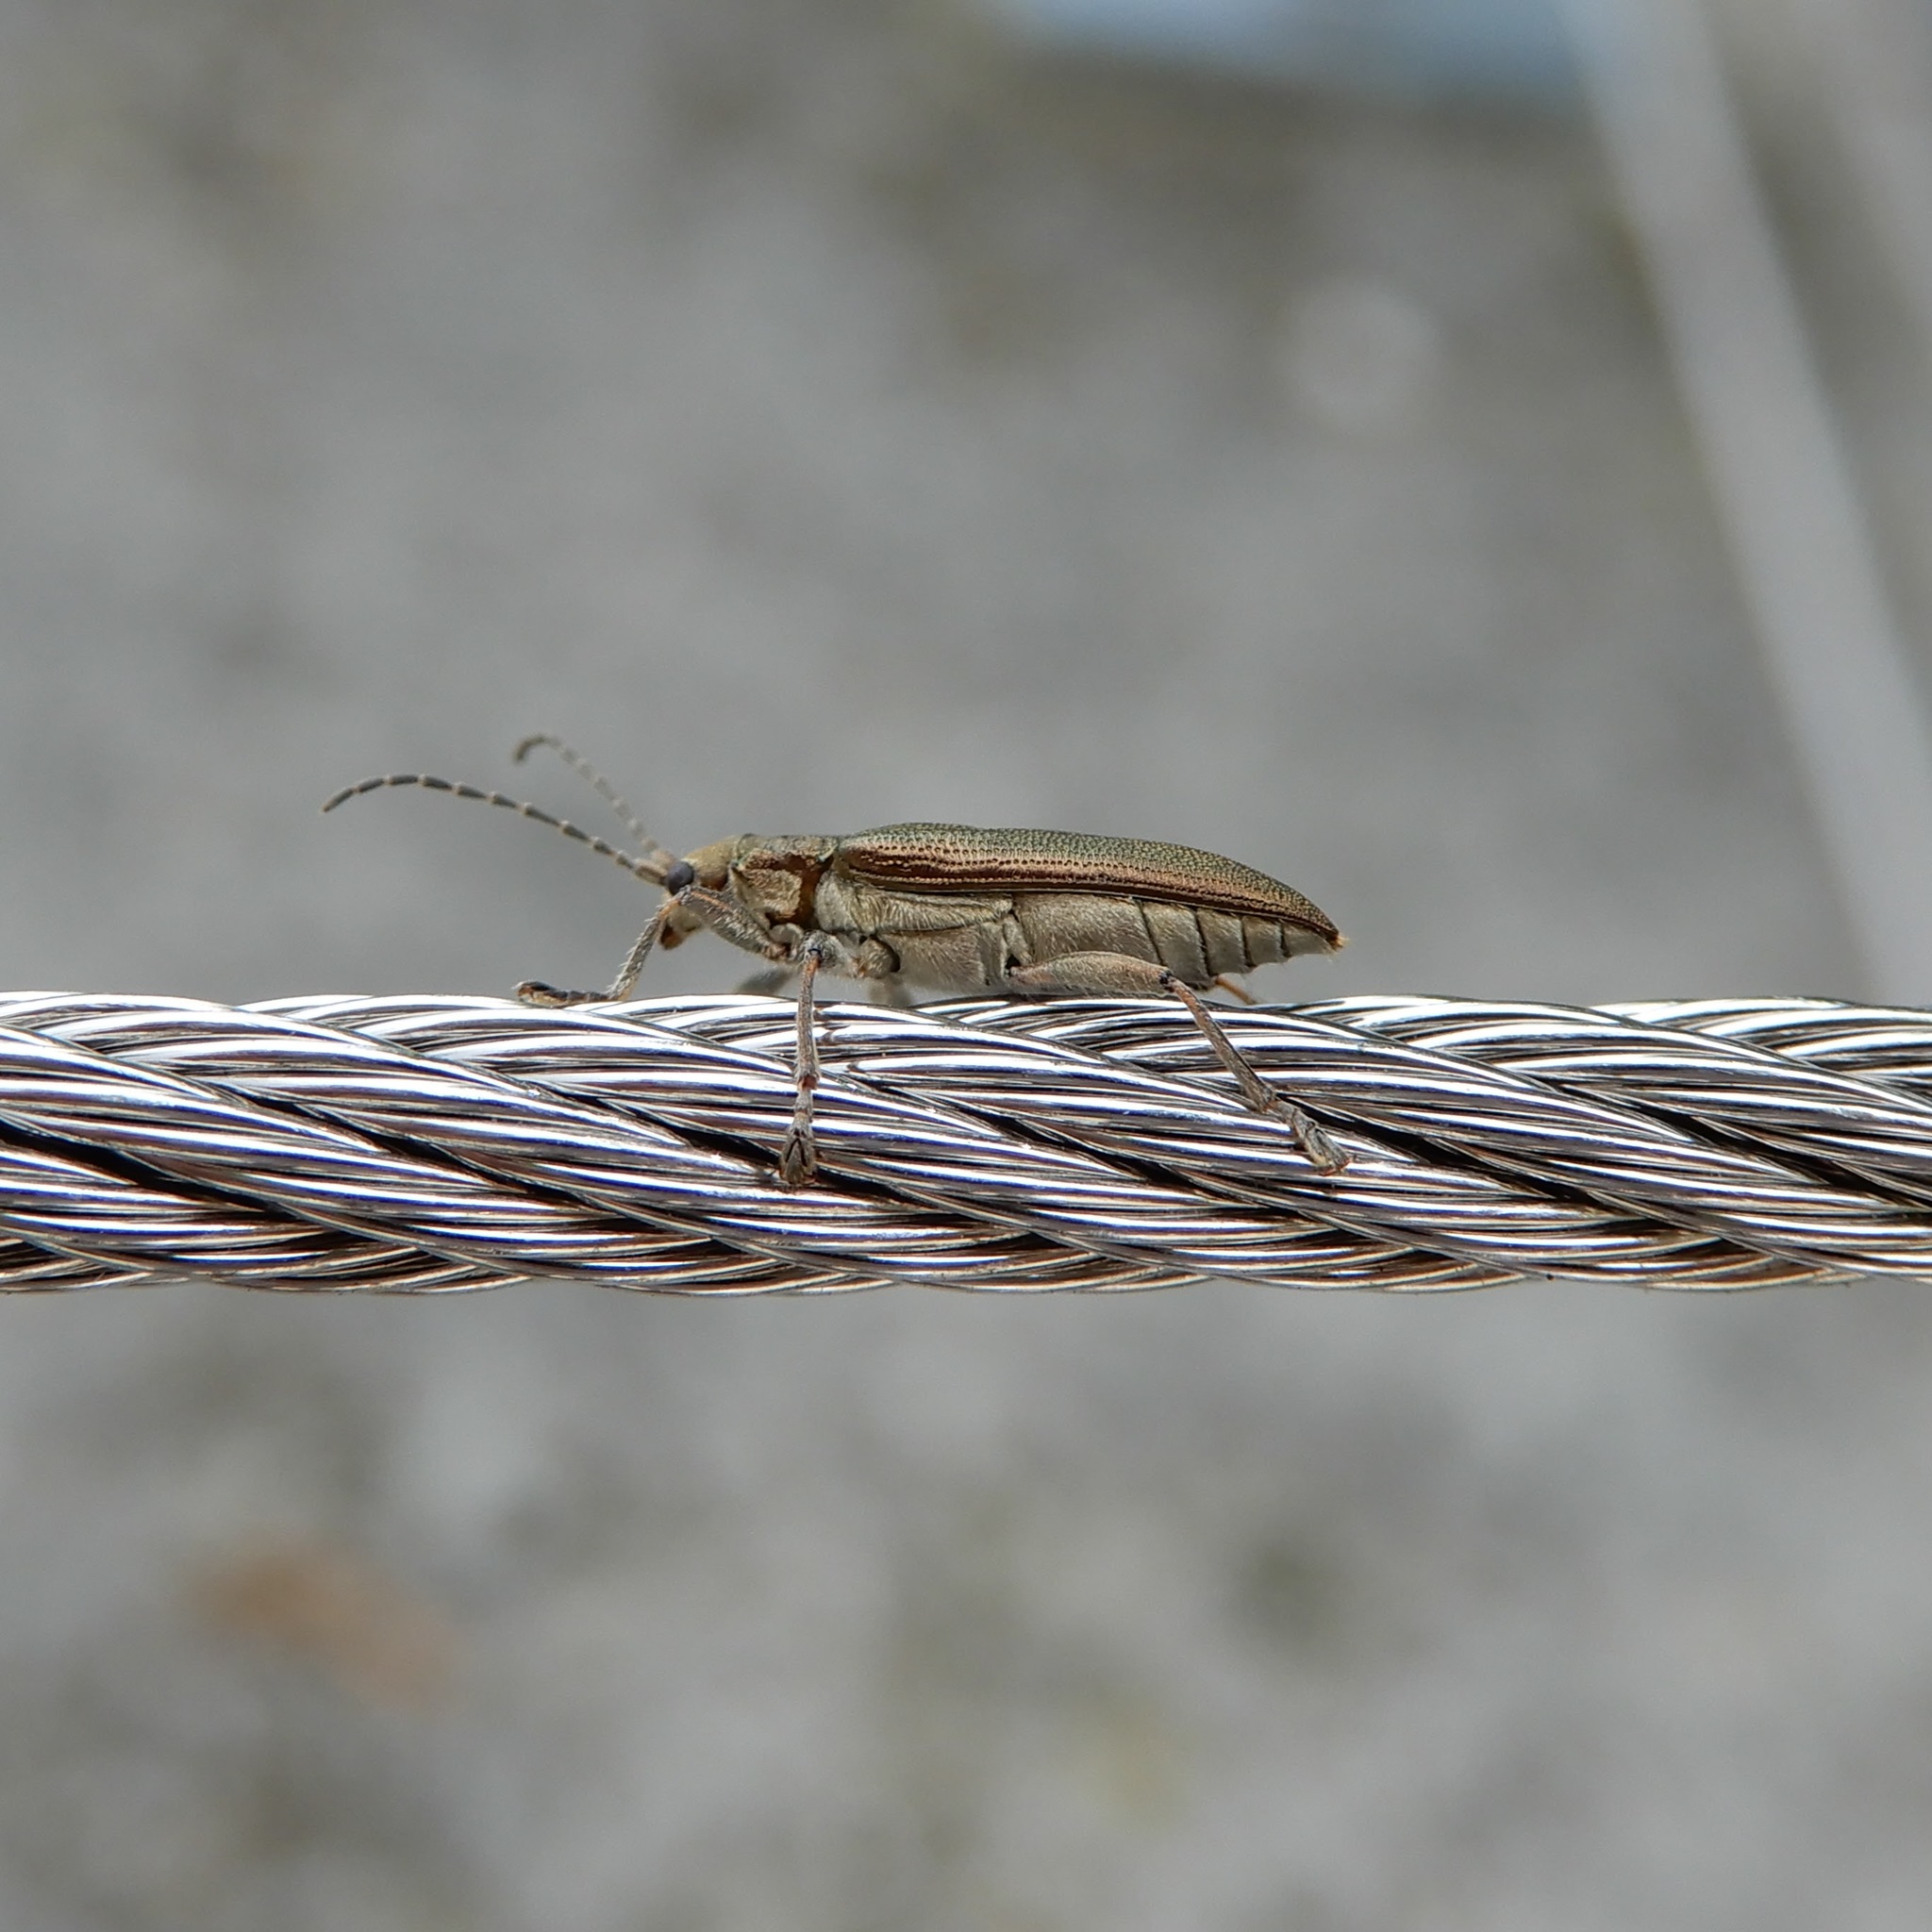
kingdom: Animalia
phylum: Arthropoda
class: Insecta
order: Coleoptera
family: Chrysomelidae
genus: Donacia
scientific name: Donacia simplex
